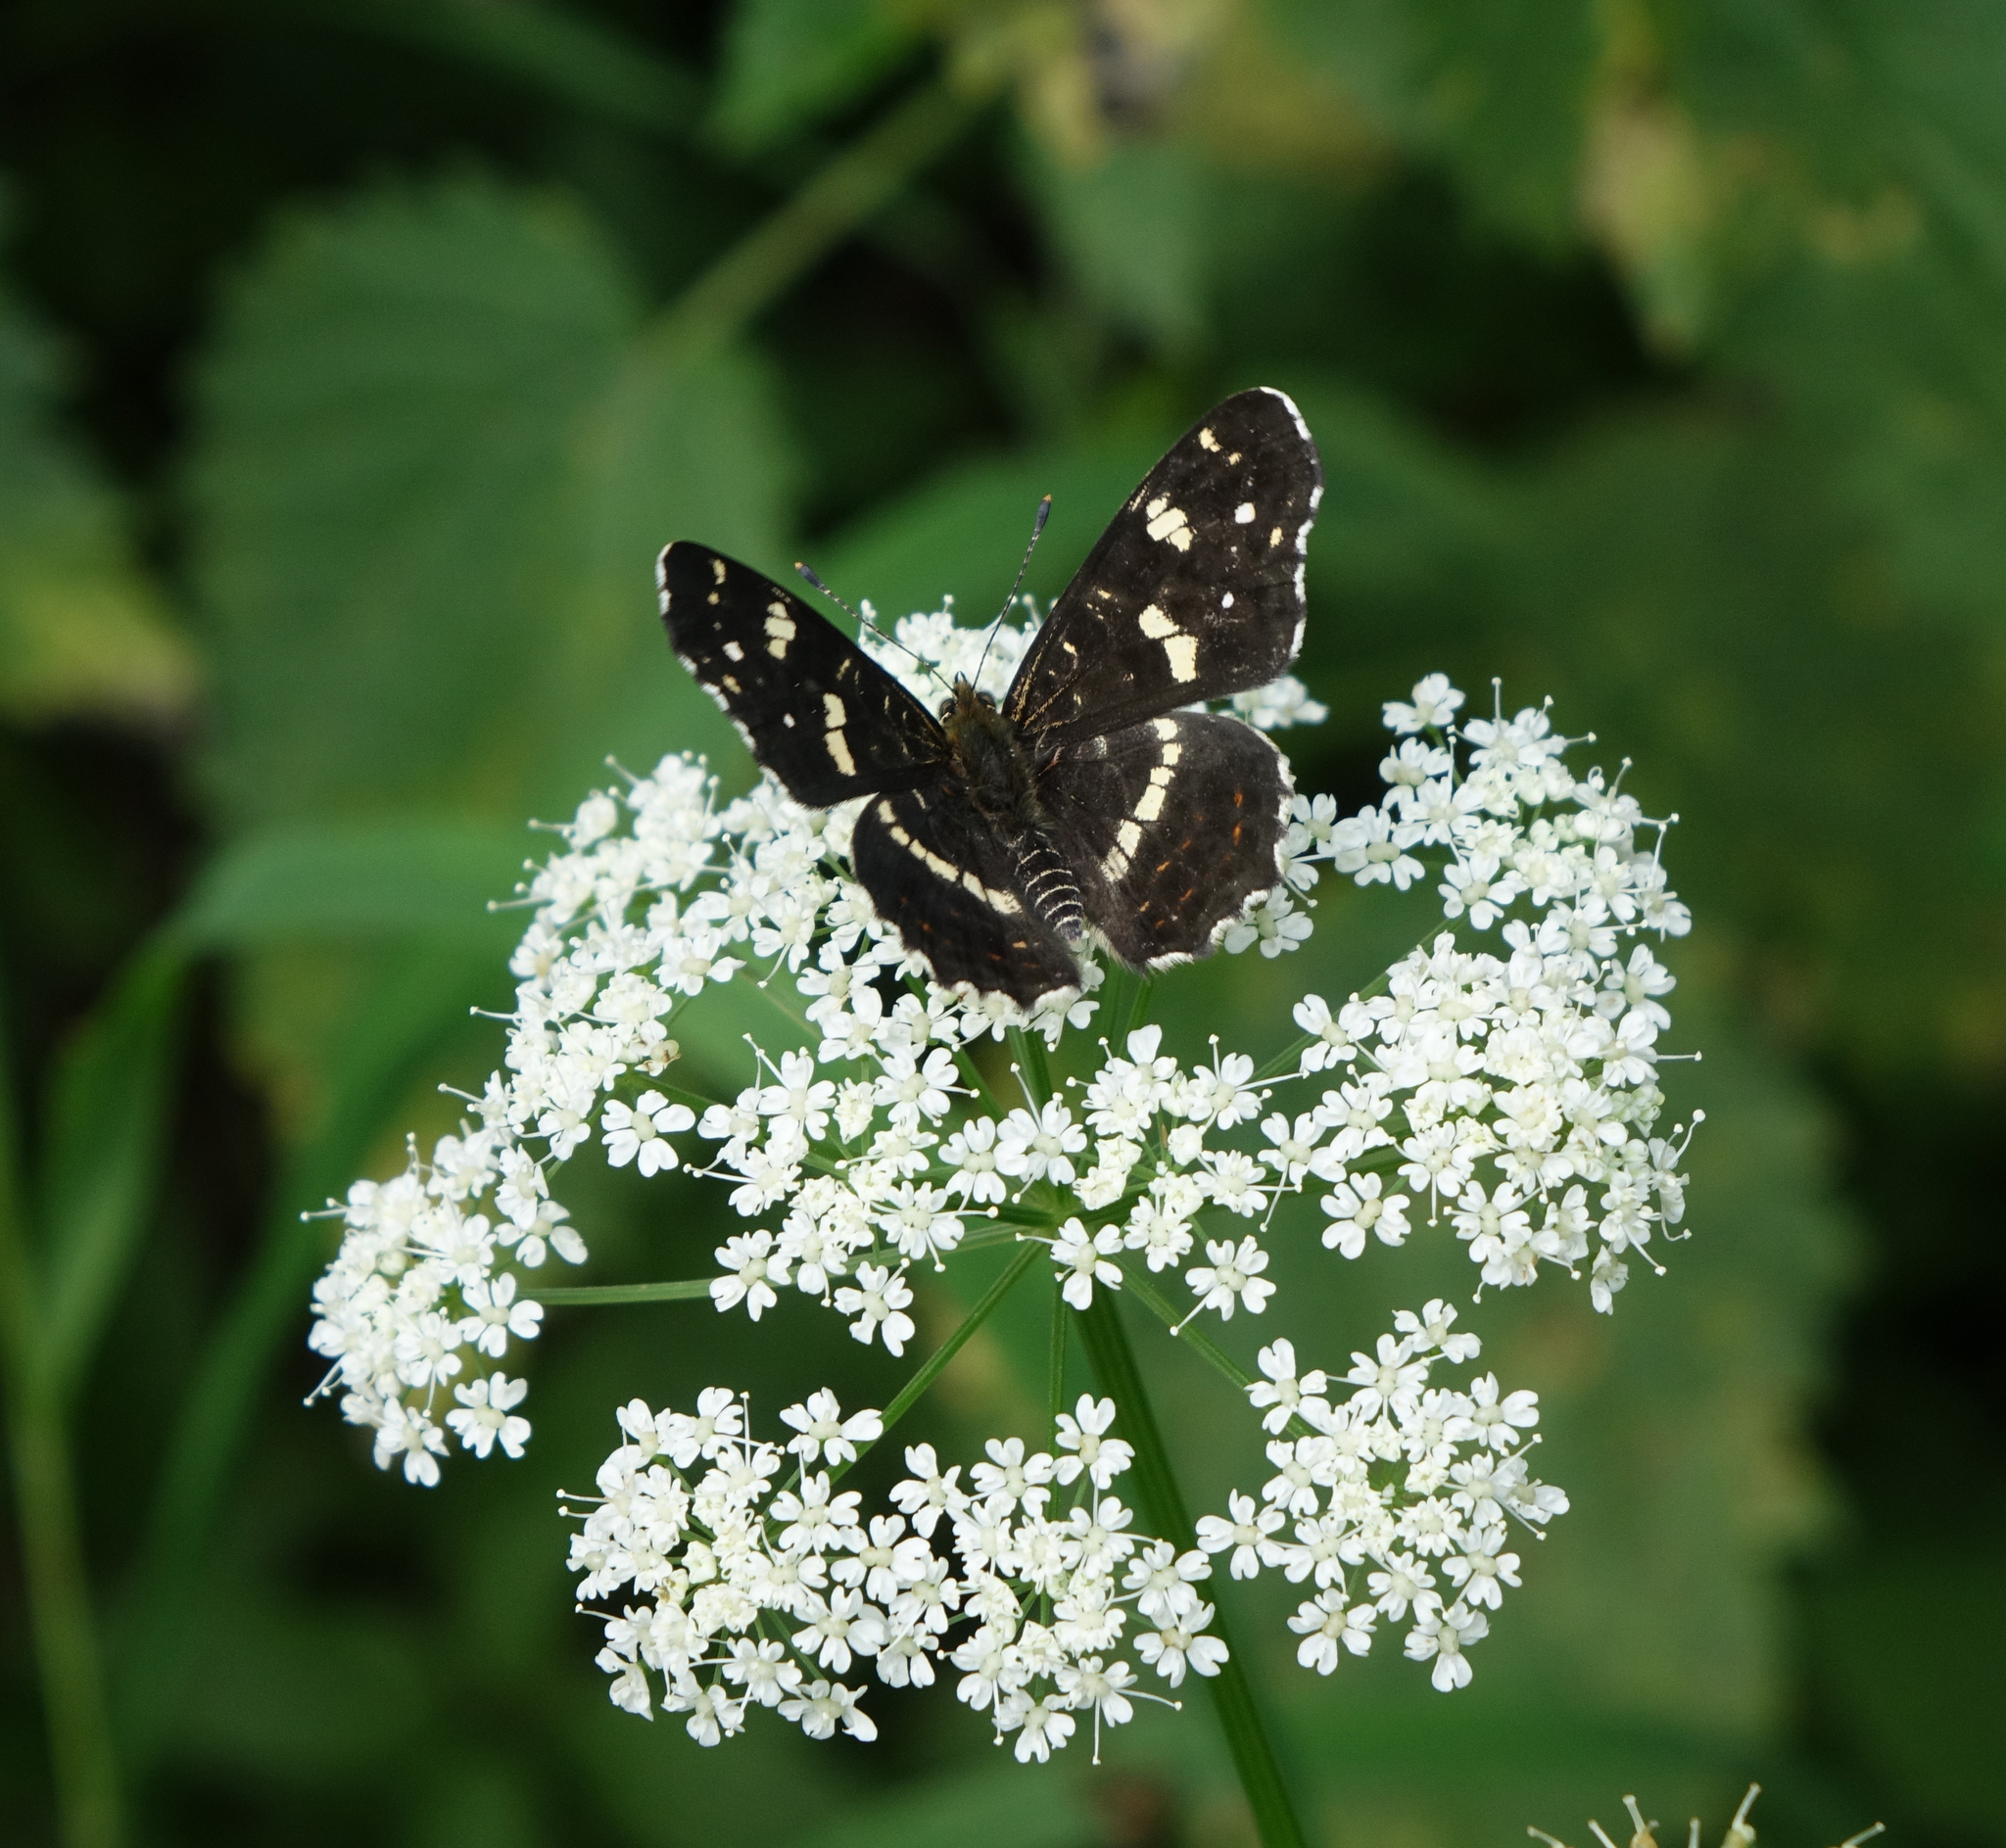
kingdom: Plantae
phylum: Tracheophyta
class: Magnoliopsida
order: Apiales
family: Apiaceae
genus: Aegopodium
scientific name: Aegopodium podagraria
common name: Ground-elder
